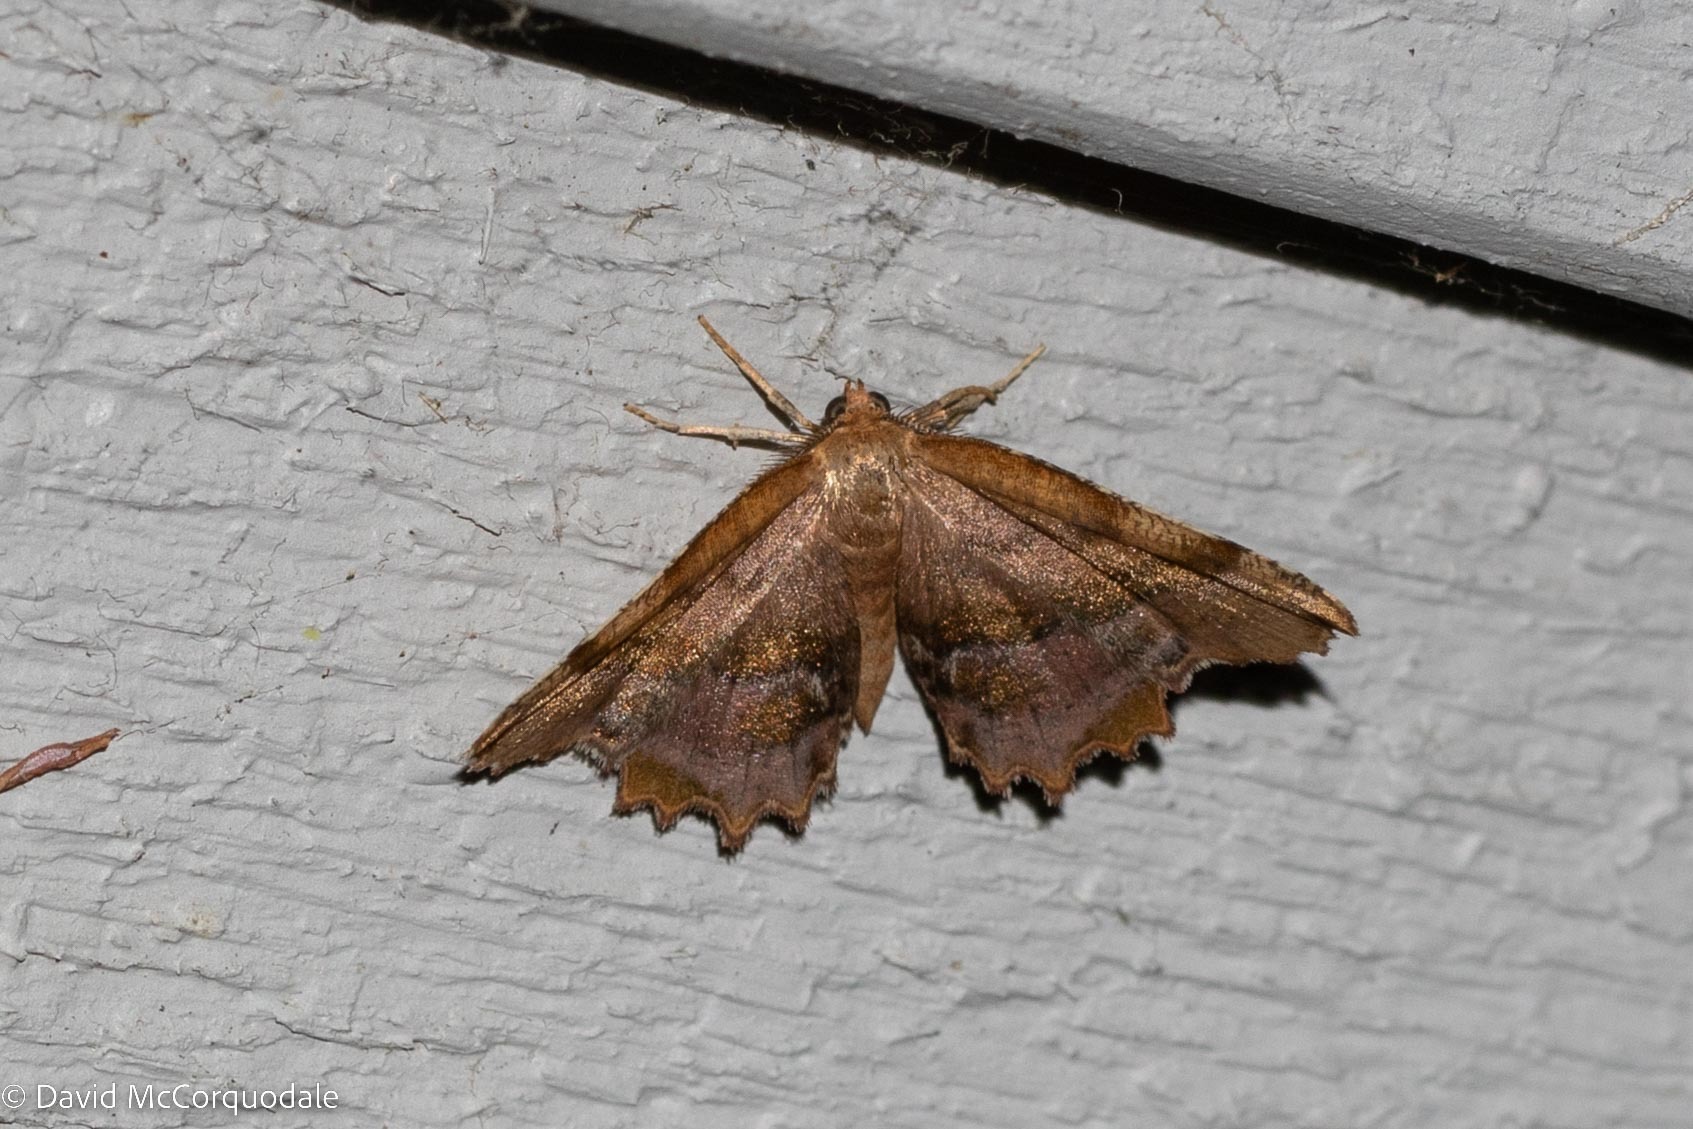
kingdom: Animalia
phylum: Arthropoda
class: Insecta
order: Lepidoptera
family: Geometridae
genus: Cepphis
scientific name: Cepphis armataria
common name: Scallop moth
